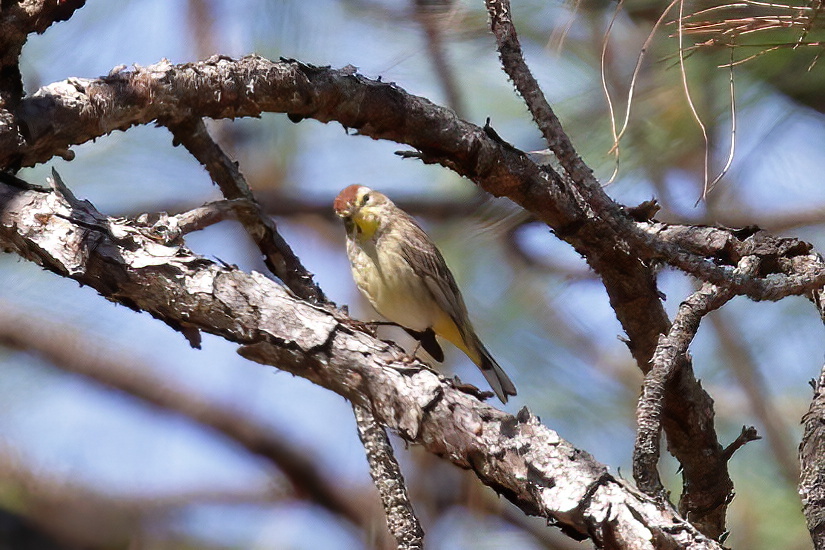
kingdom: Animalia
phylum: Chordata
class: Aves
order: Passeriformes
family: Parulidae
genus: Setophaga
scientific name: Setophaga palmarum
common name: Palm warbler
